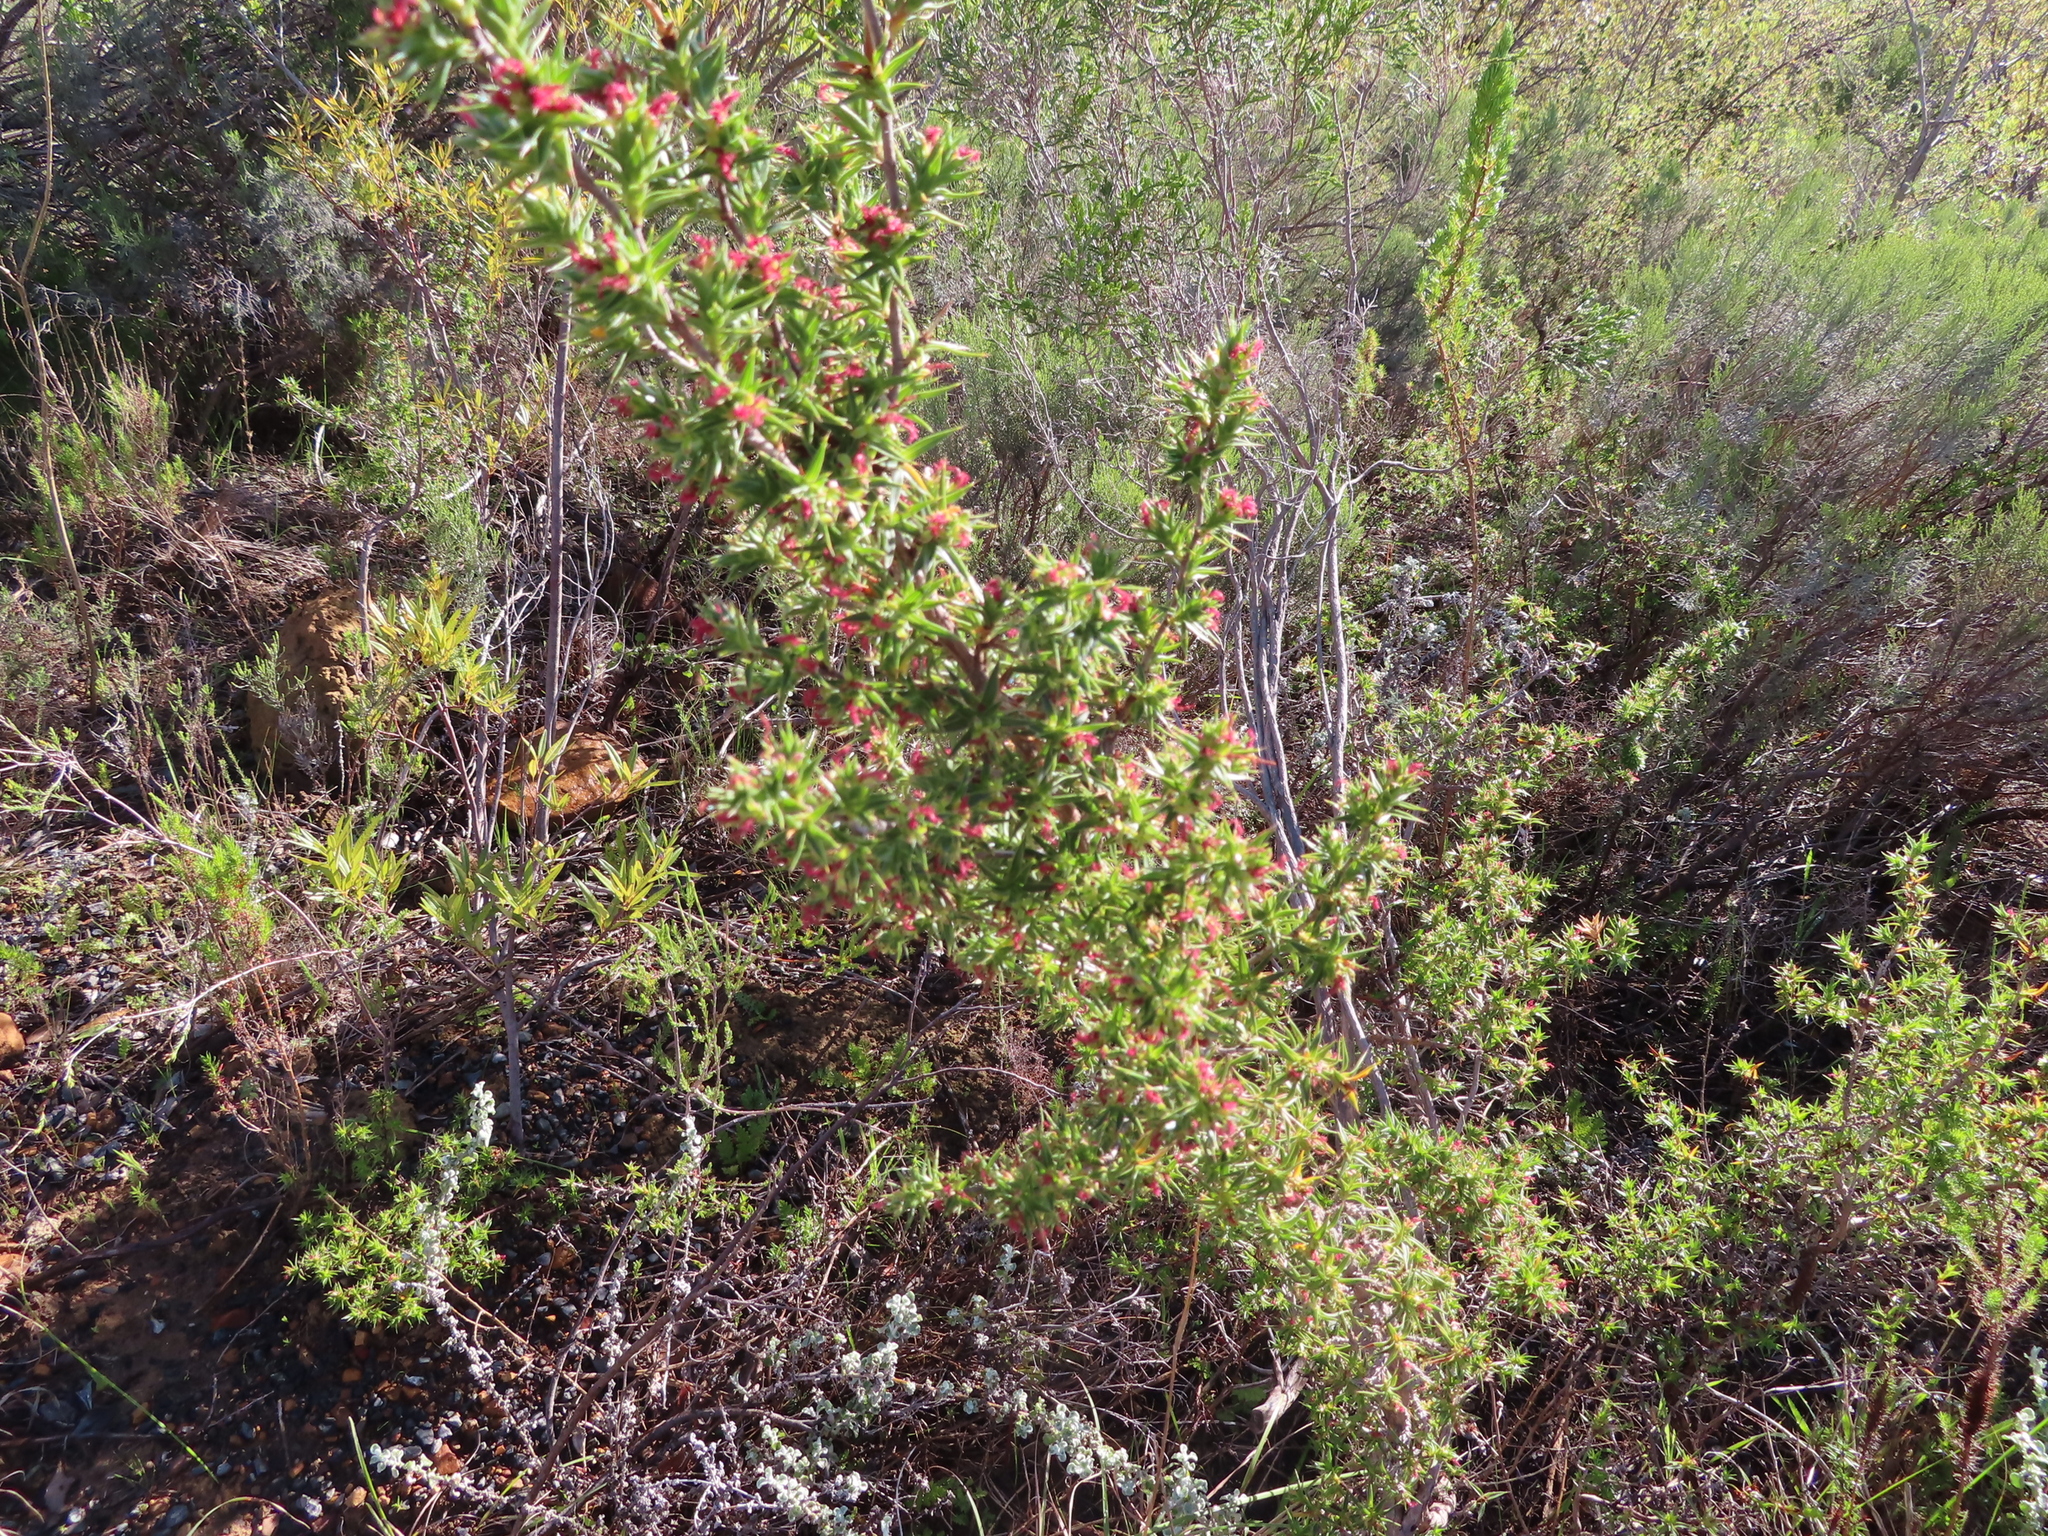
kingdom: Plantae
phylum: Tracheophyta
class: Magnoliopsida
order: Rosales
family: Rosaceae
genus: Cliffortia
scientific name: Cliffortia ruscifolia
